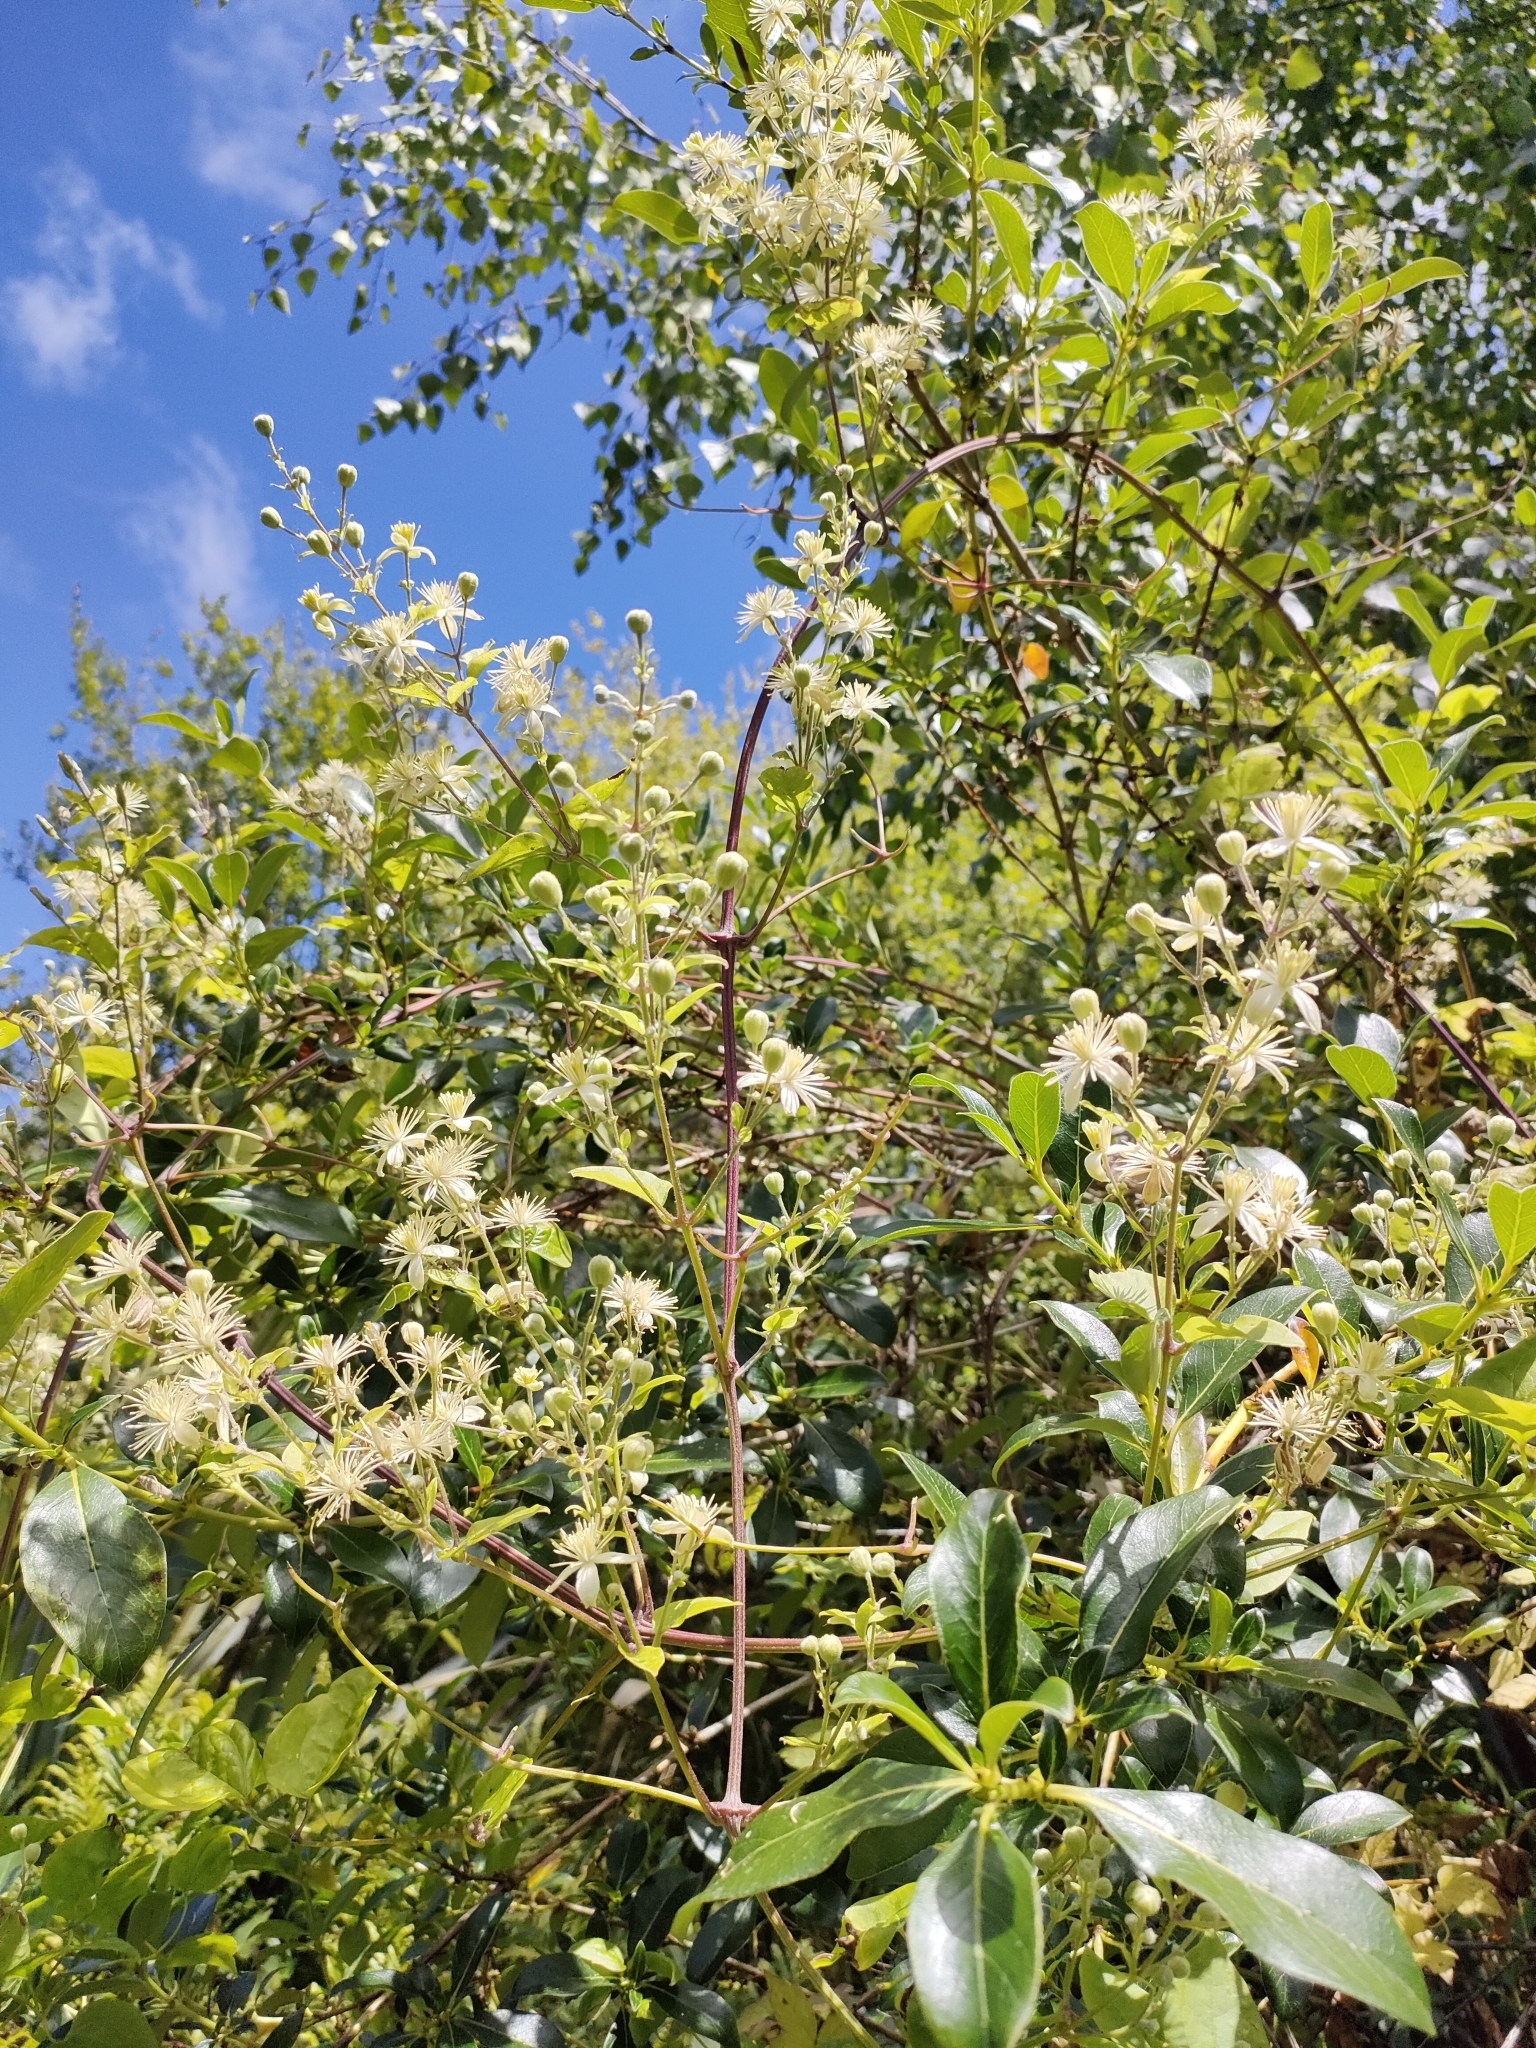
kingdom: Plantae
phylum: Tracheophyta
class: Magnoliopsida
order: Ranunculales
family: Ranunculaceae
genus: Clematis
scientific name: Clematis vitalba
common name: Evergreen clematis
